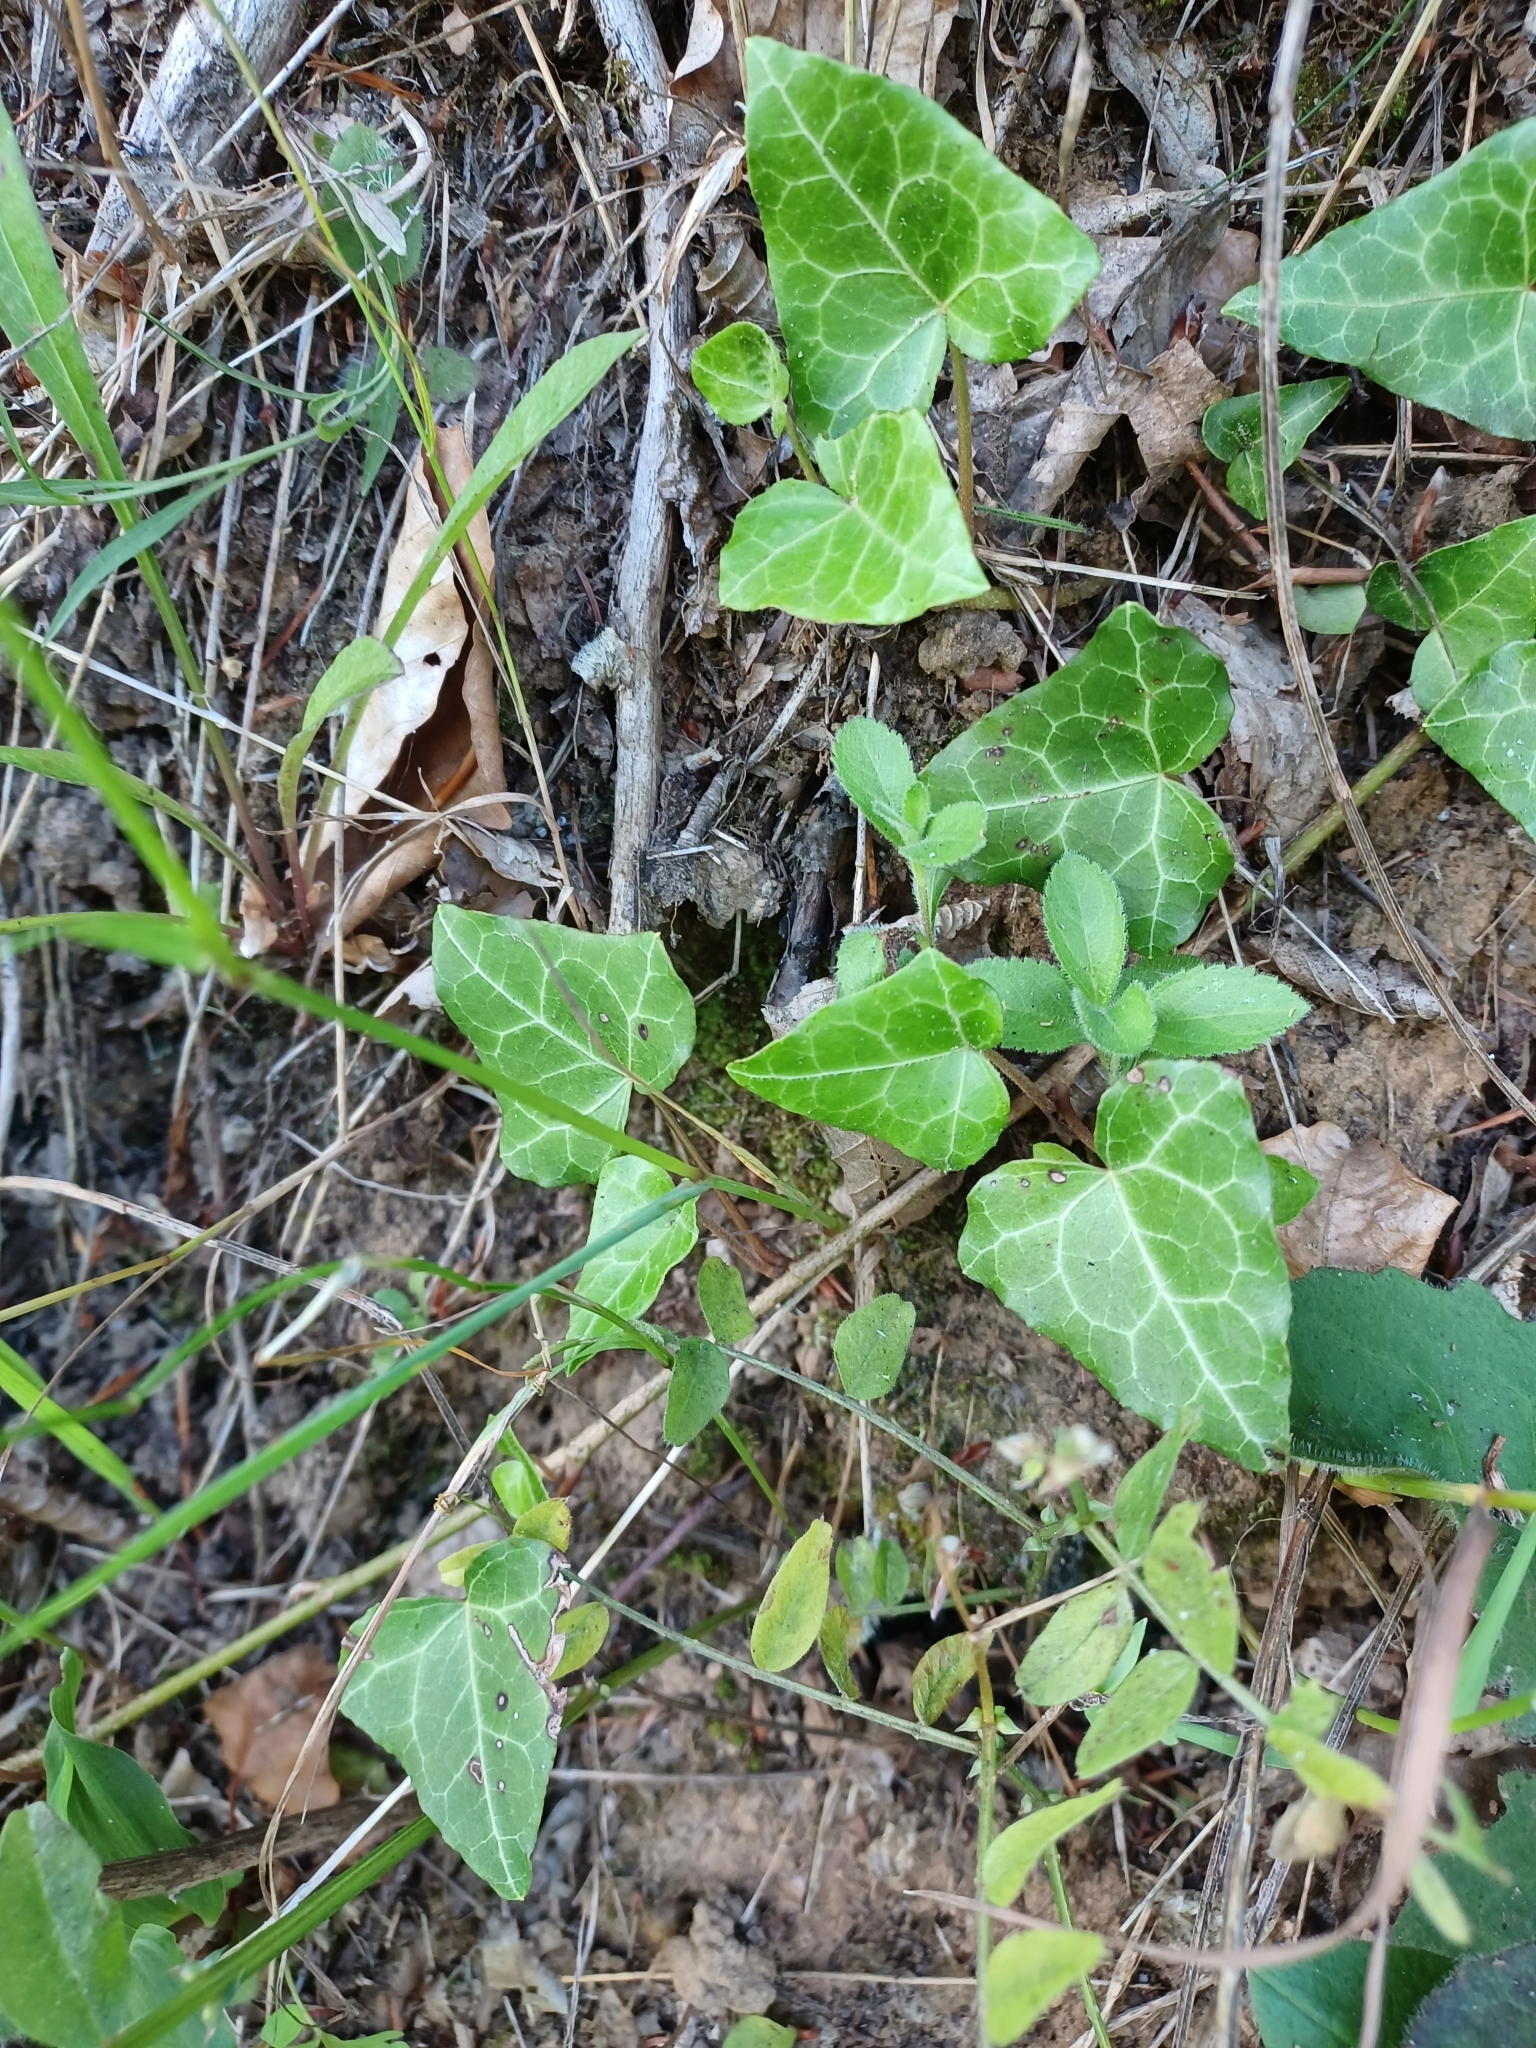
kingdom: Plantae
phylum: Tracheophyta
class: Magnoliopsida
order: Apiales
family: Araliaceae
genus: Hedera
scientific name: Hedera helix
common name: Ivy
